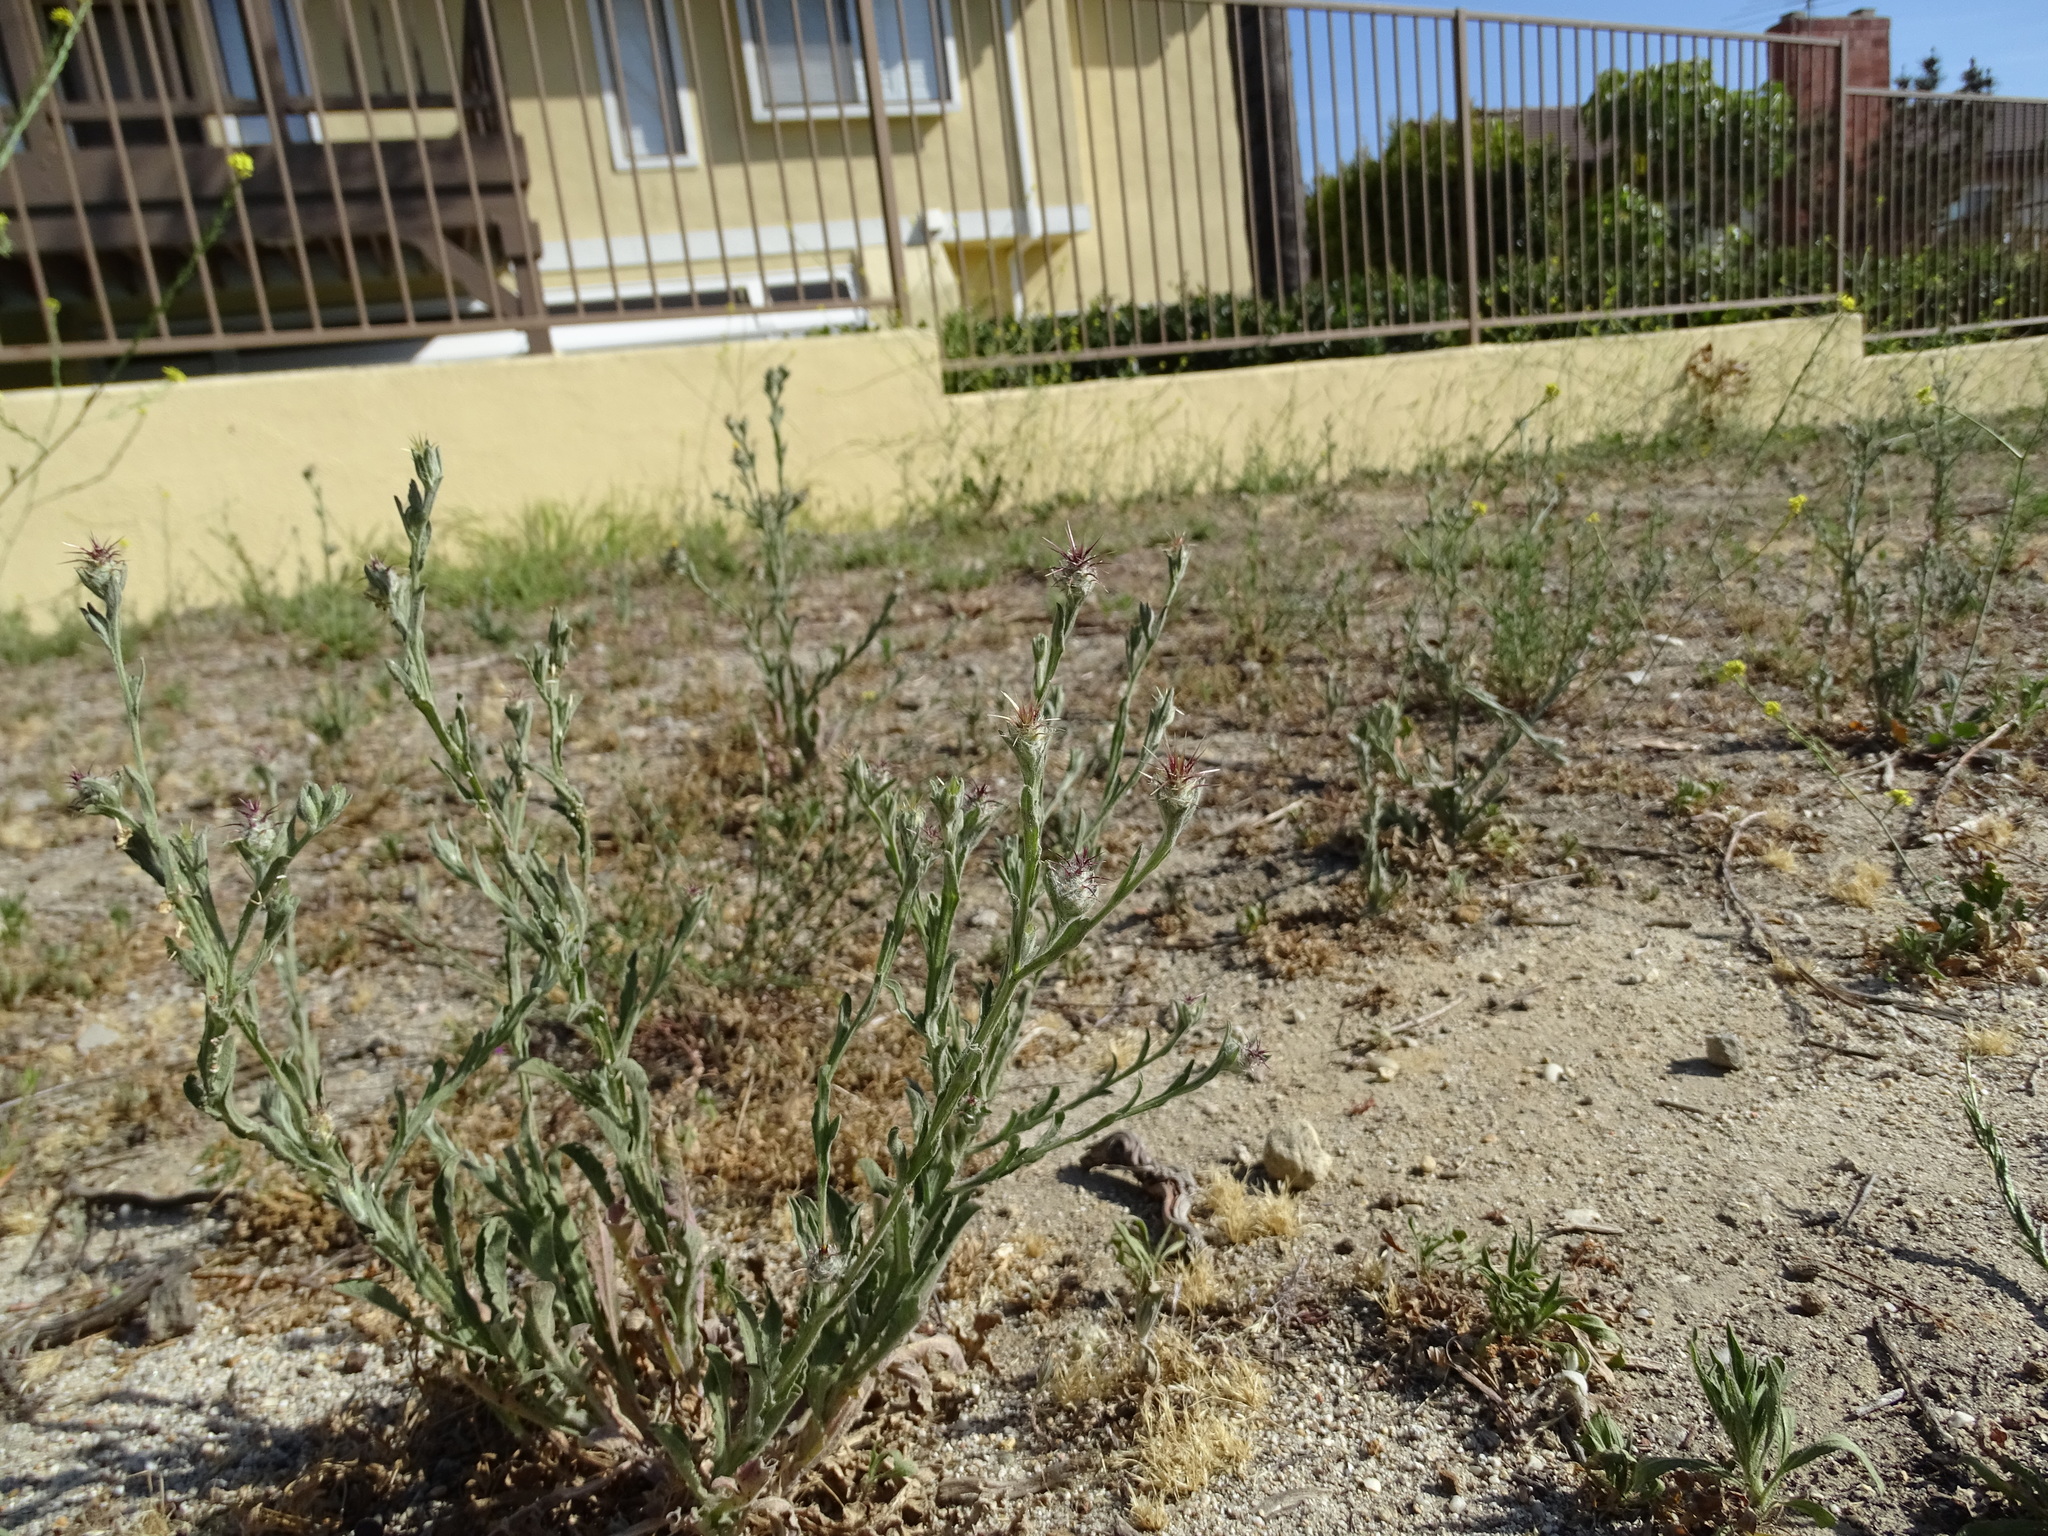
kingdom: Plantae
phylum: Tracheophyta
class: Magnoliopsida
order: Asterales
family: Asteraceae
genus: Centaurea
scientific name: Centaurea melitensis
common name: Maltese star-thistle
